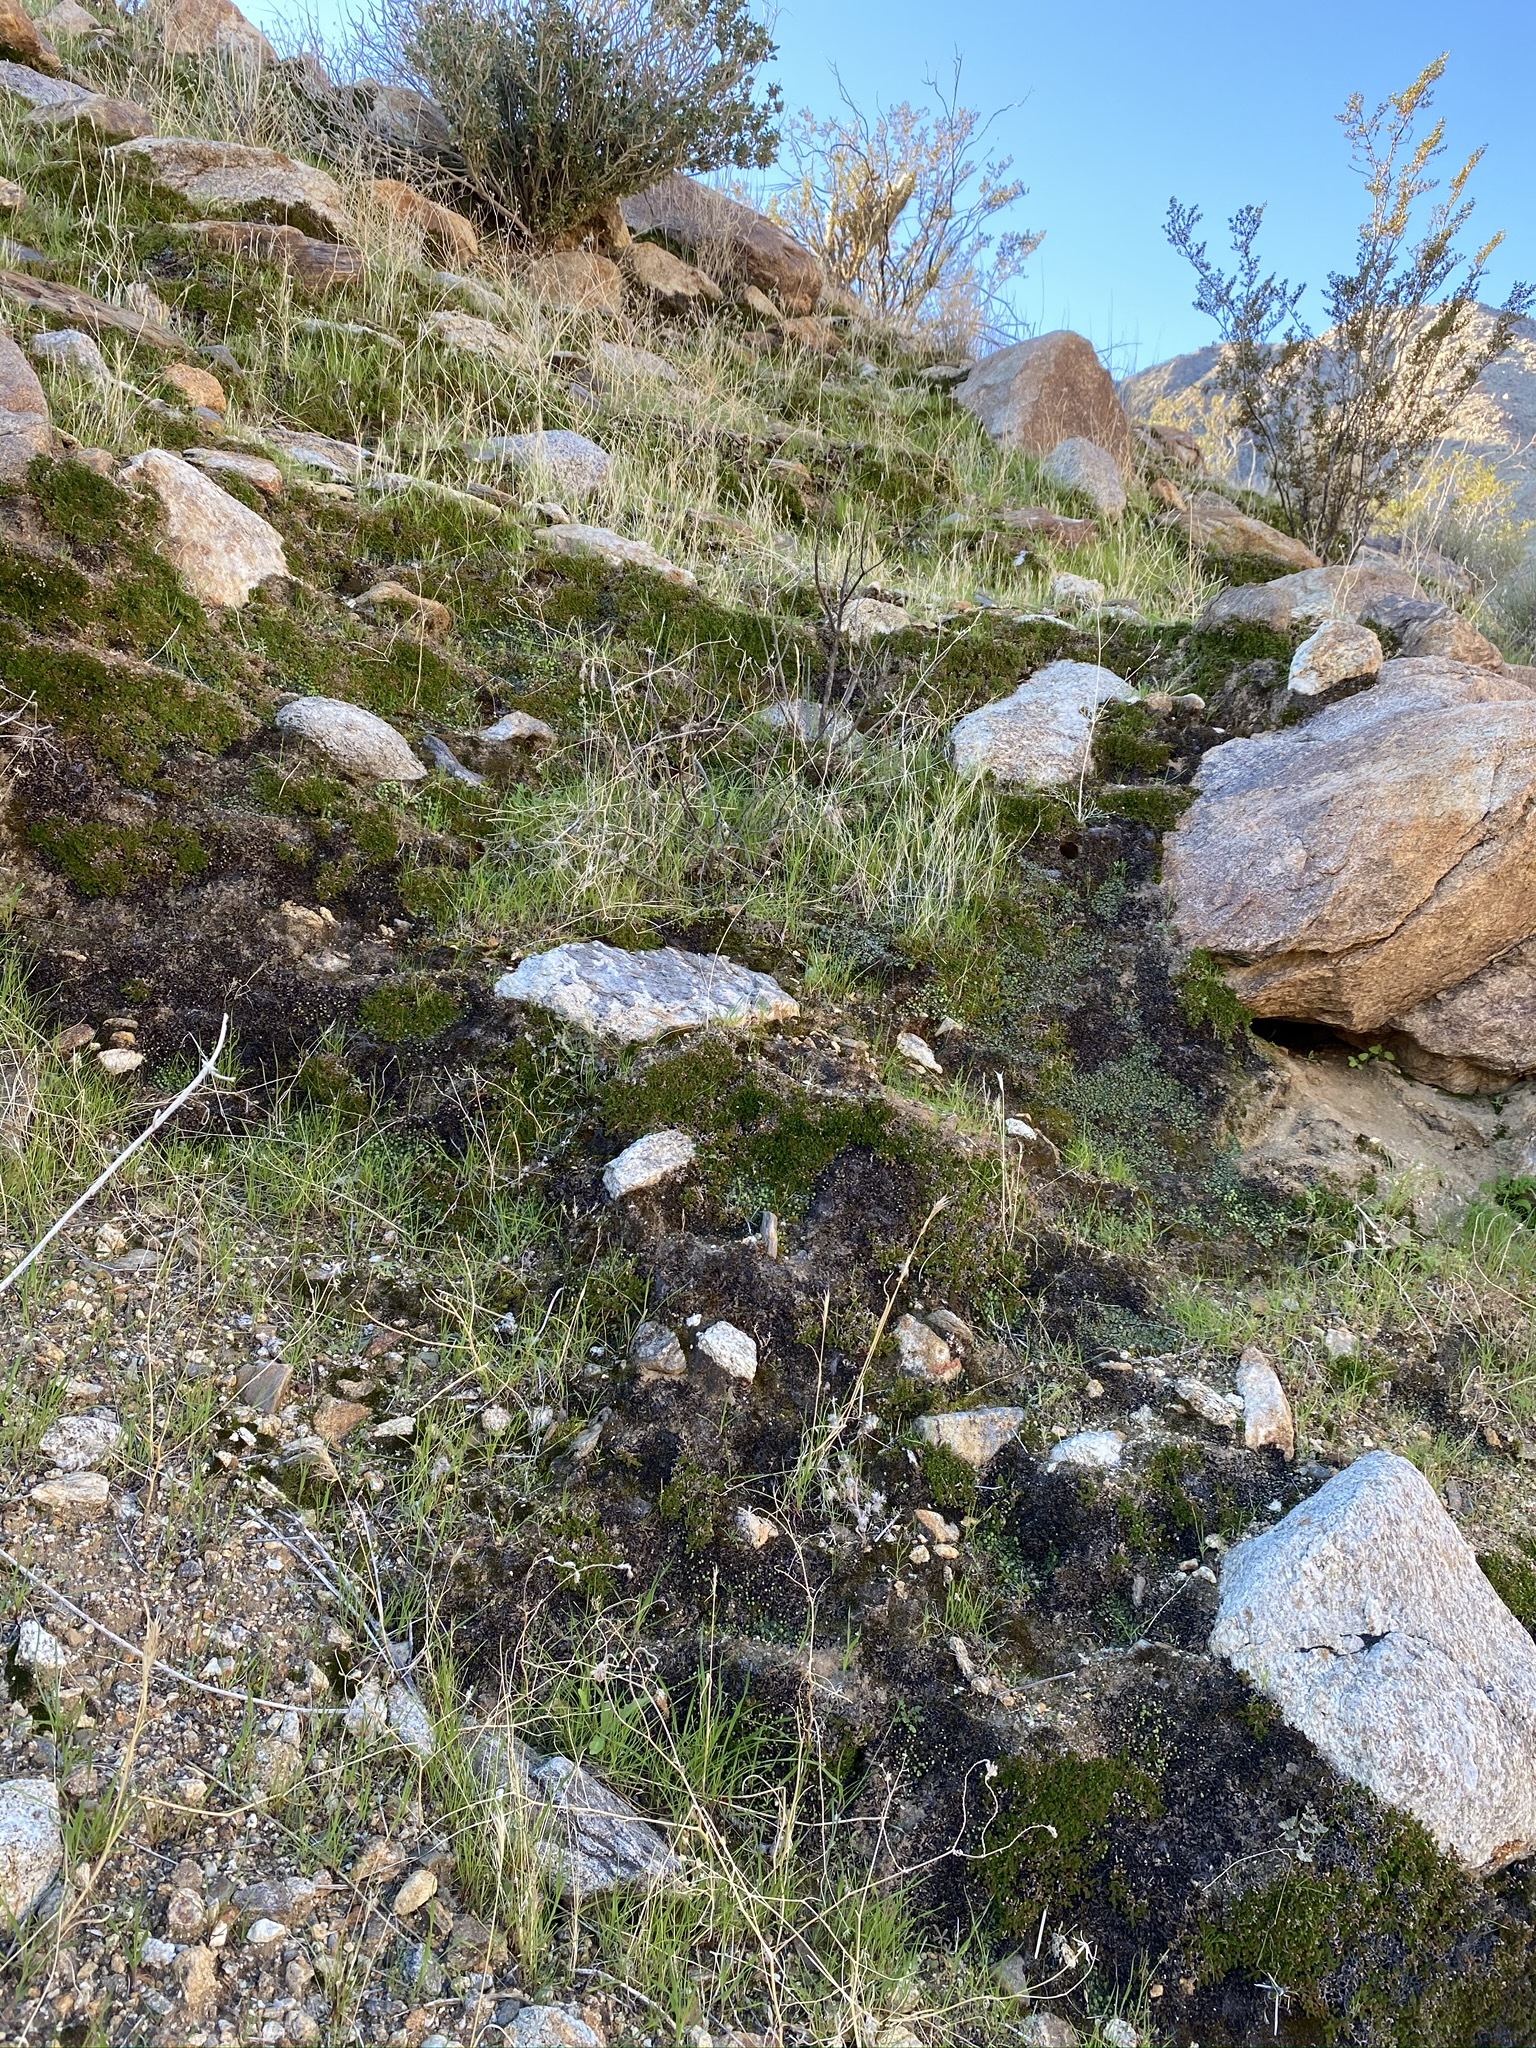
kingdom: Plantae
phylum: Tracheophyta
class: Lycopodiopsida
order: Selaginellales
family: Selaginellaceae
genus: Selaginella
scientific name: Selaginella eremophila
